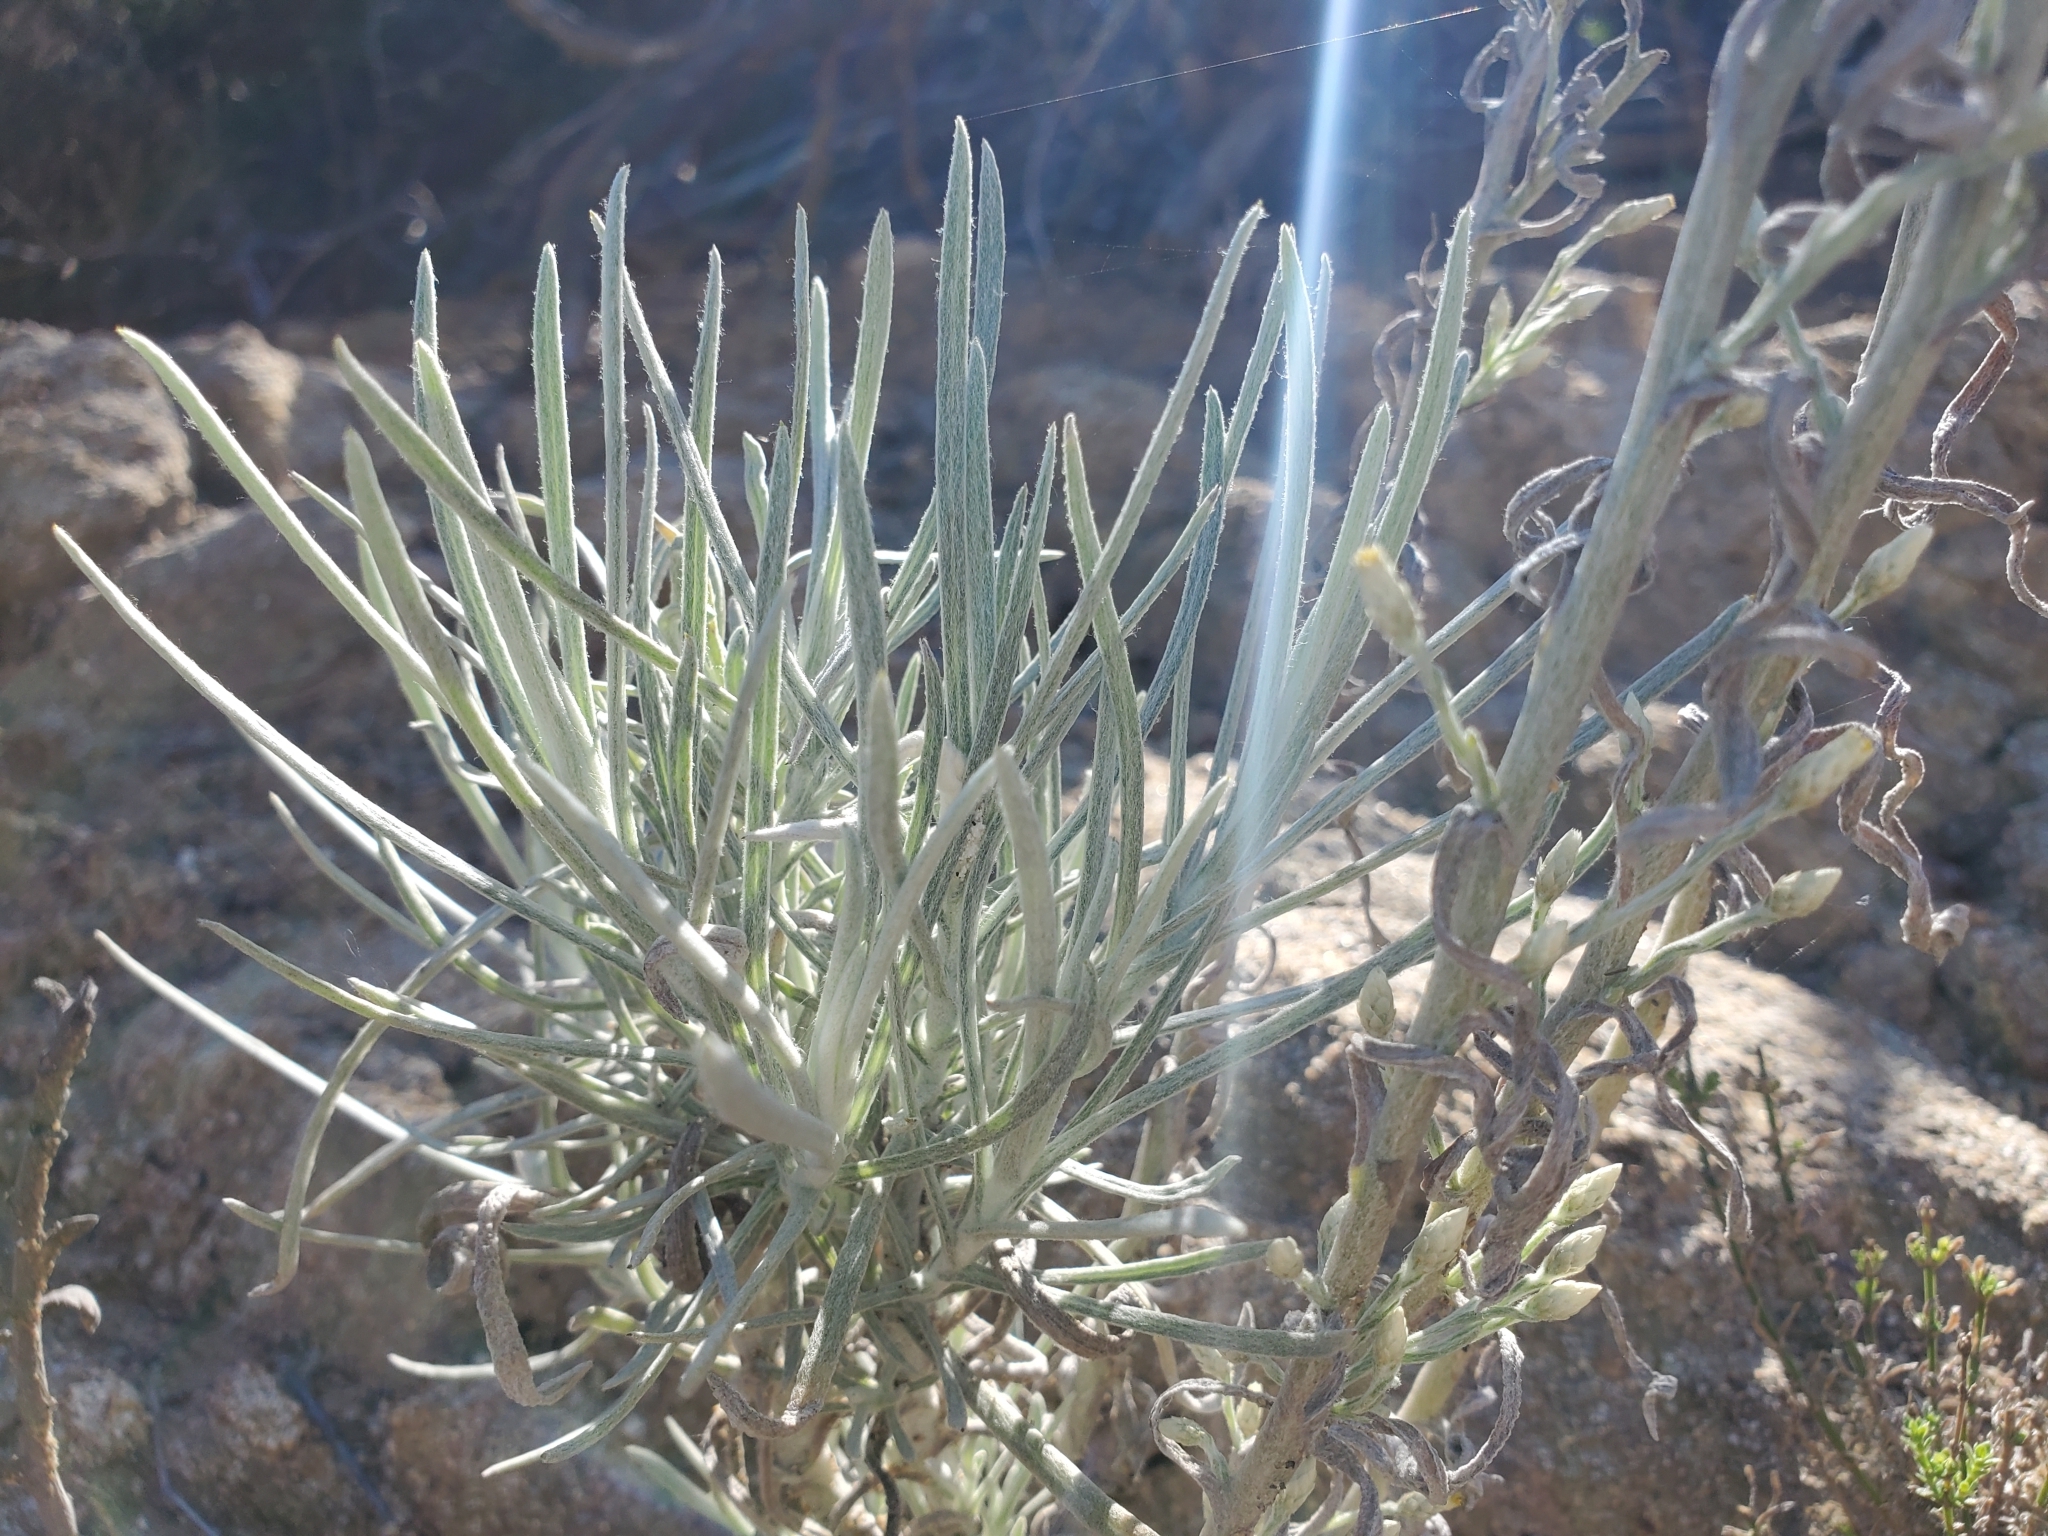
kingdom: Plantae
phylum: Tracheophyta
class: Magnoliopsida
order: Asterales
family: Asteraceae
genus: Pseudognaphalium
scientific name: Pseudognaphalium beneolens
